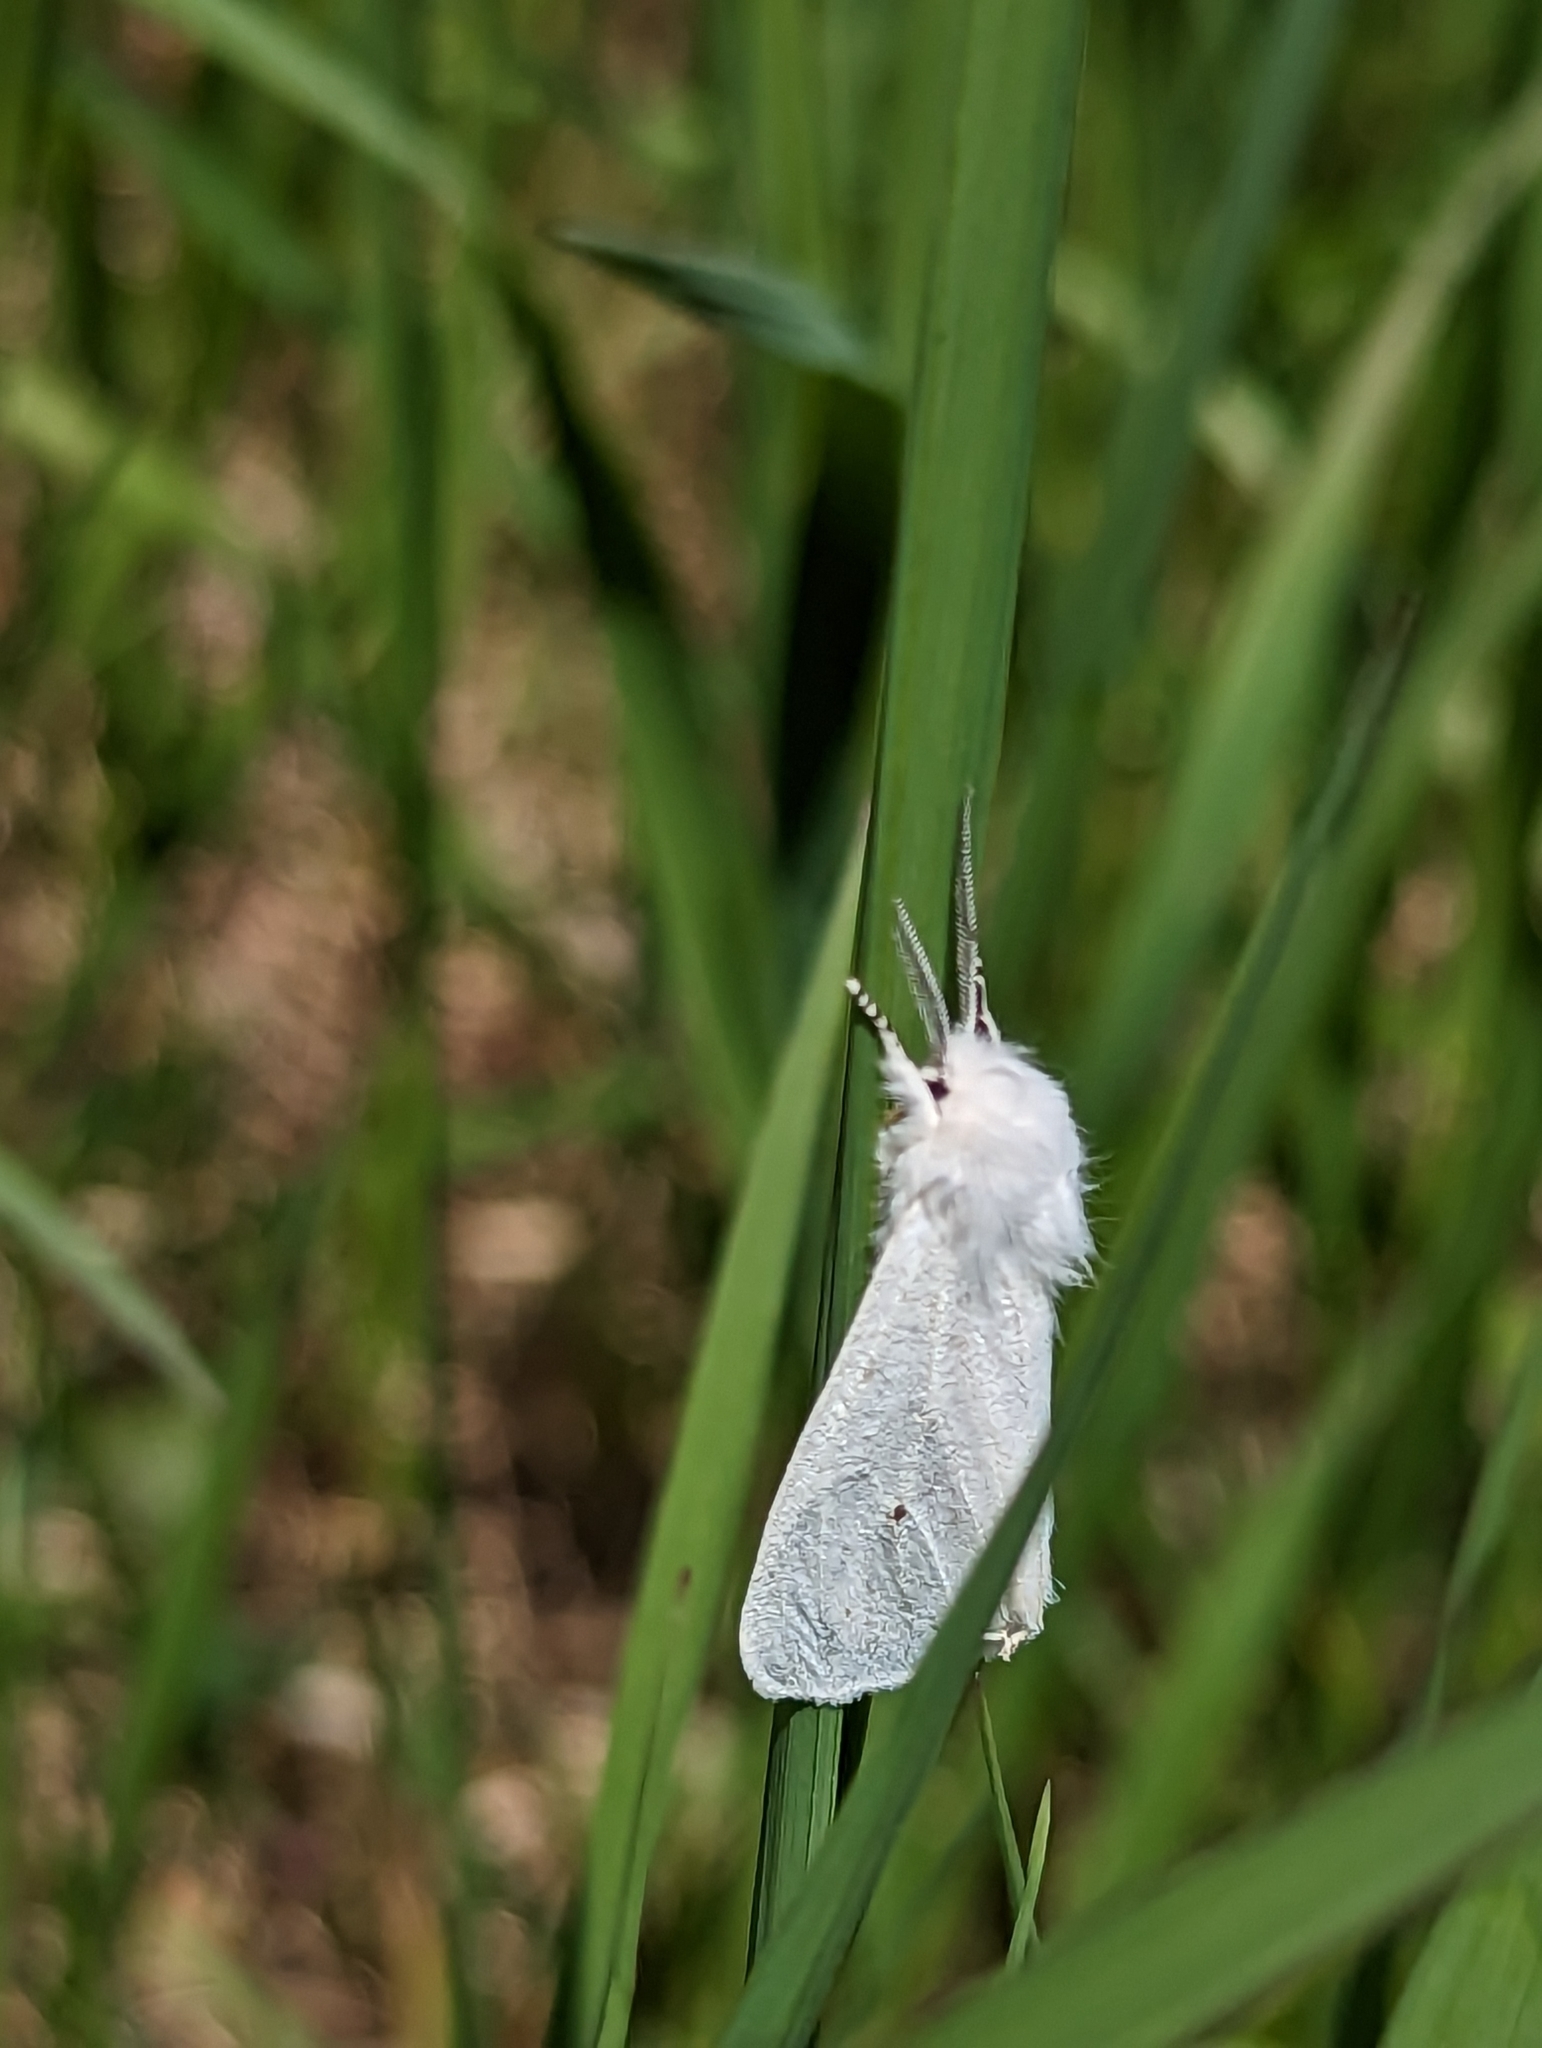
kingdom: Animalia
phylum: Arthropoda
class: Insecta
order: Lepidoptera
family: Erebidae
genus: Spilosoma
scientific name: Spilosoma virginica
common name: Virginia tiger moth
